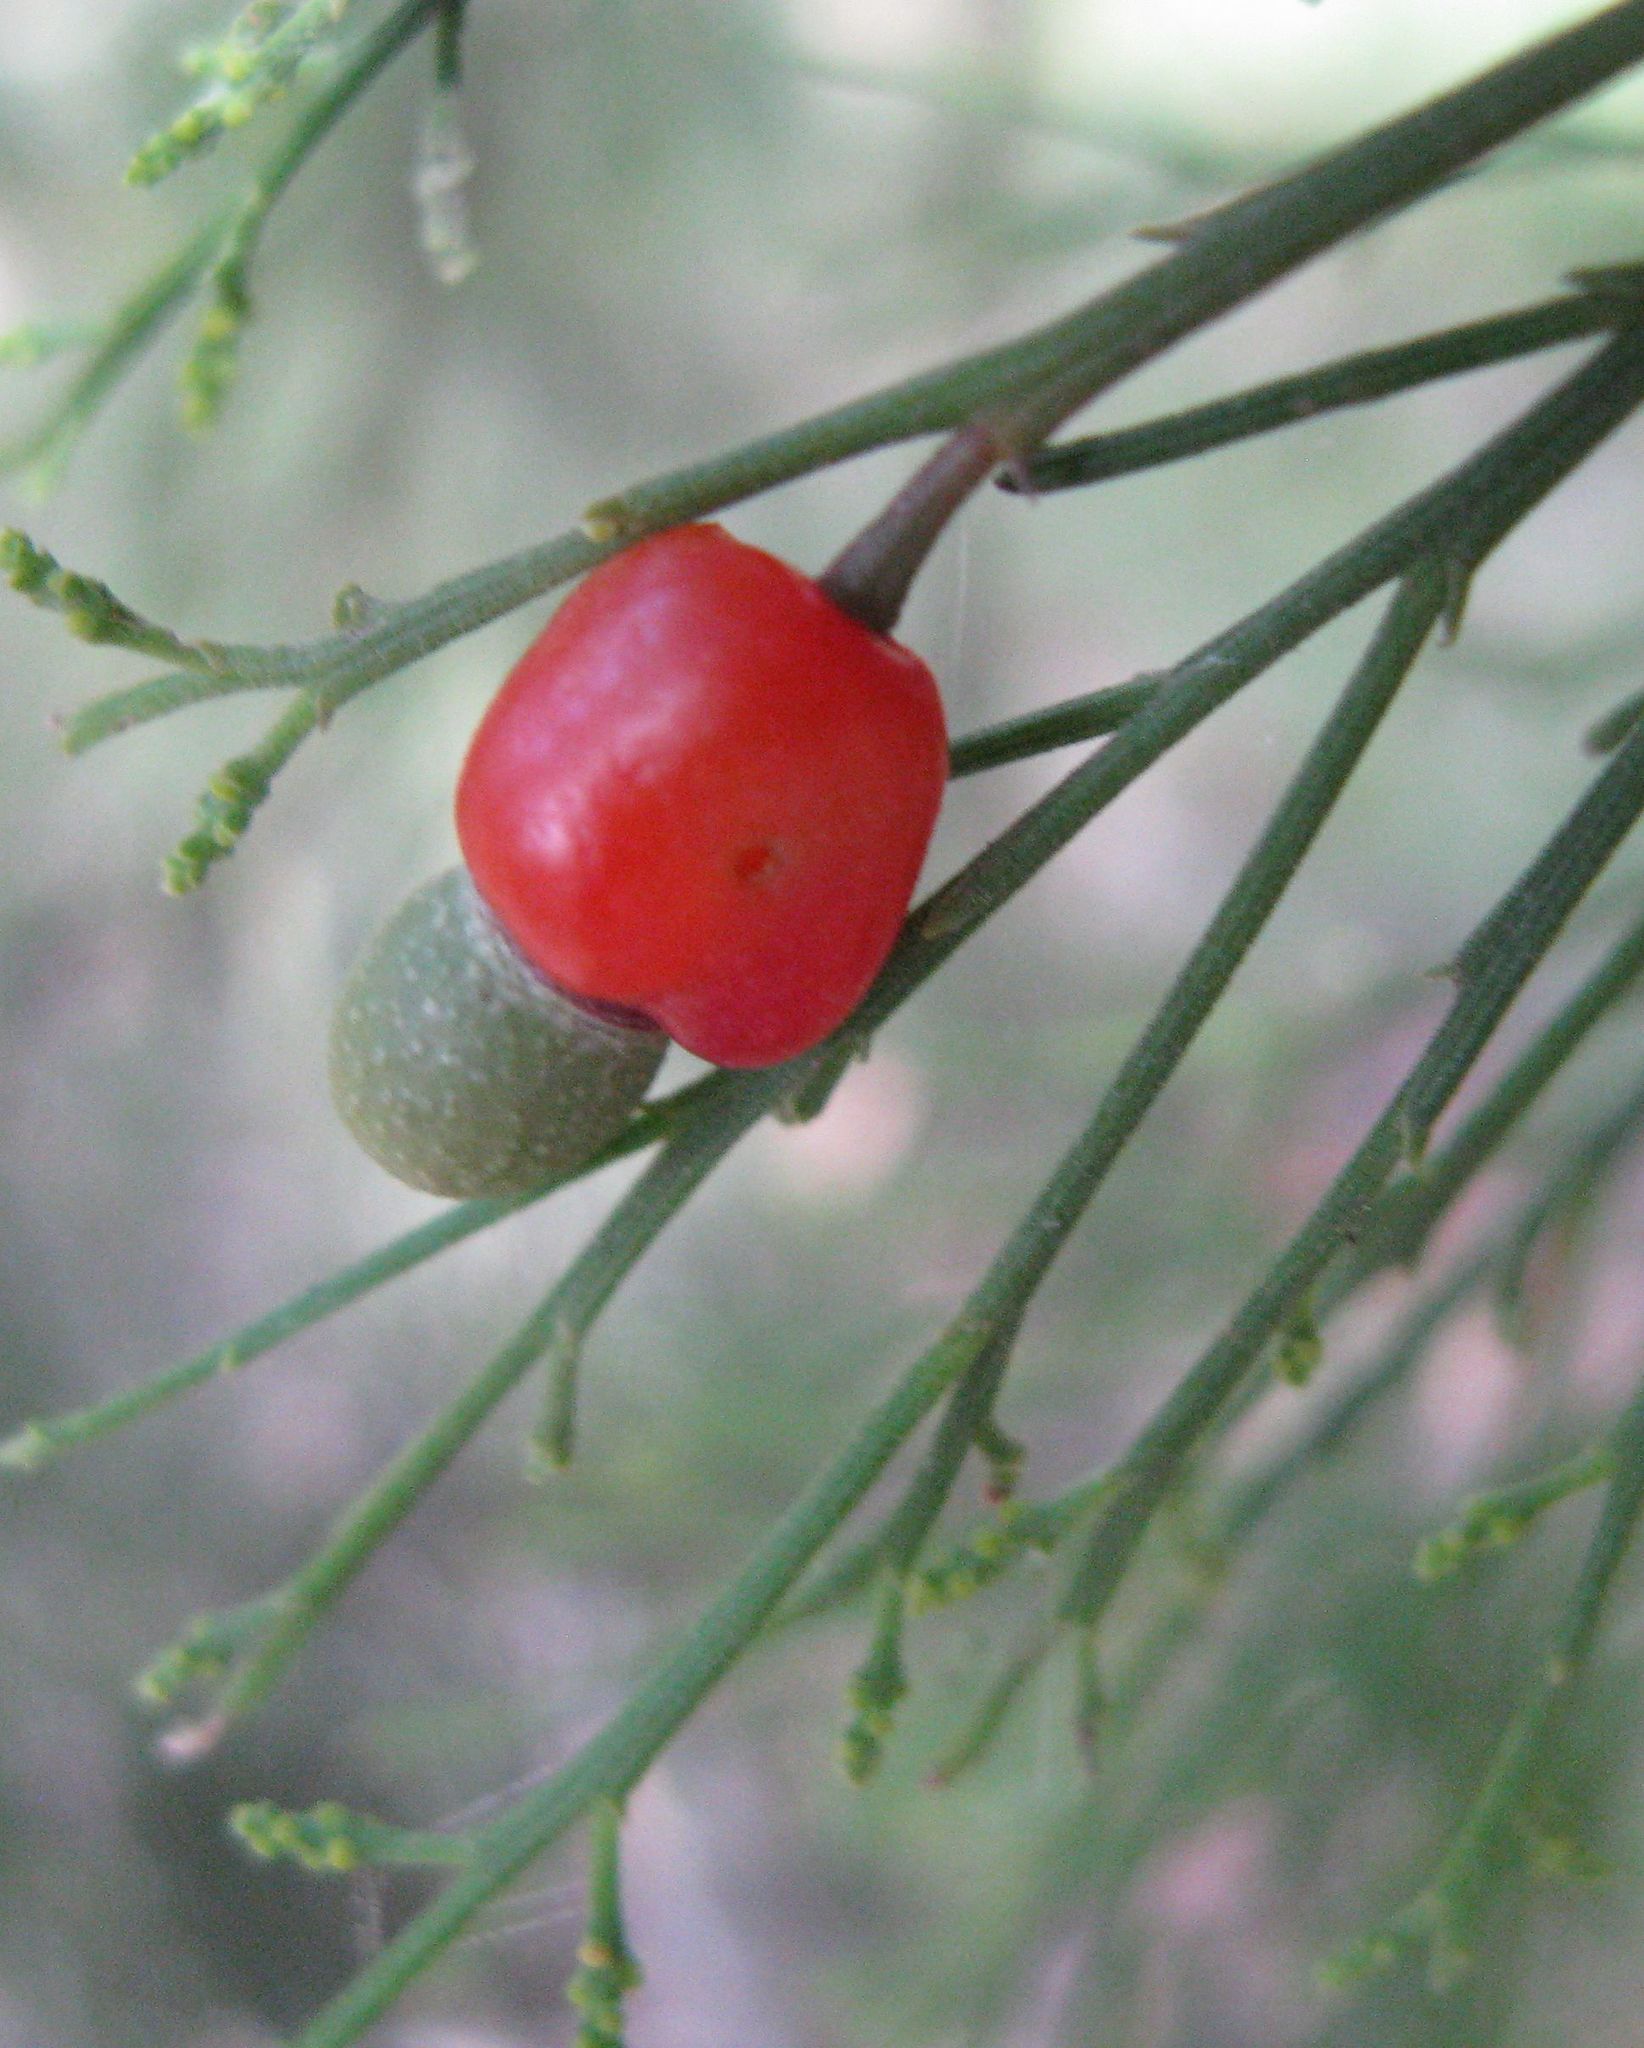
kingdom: Plantae
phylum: Tracheophyta
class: Magnoliopsida
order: Santalales
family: Santalaceae
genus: Exocarpos
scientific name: Exocarpos cupressiformis
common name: Cherry ballart
